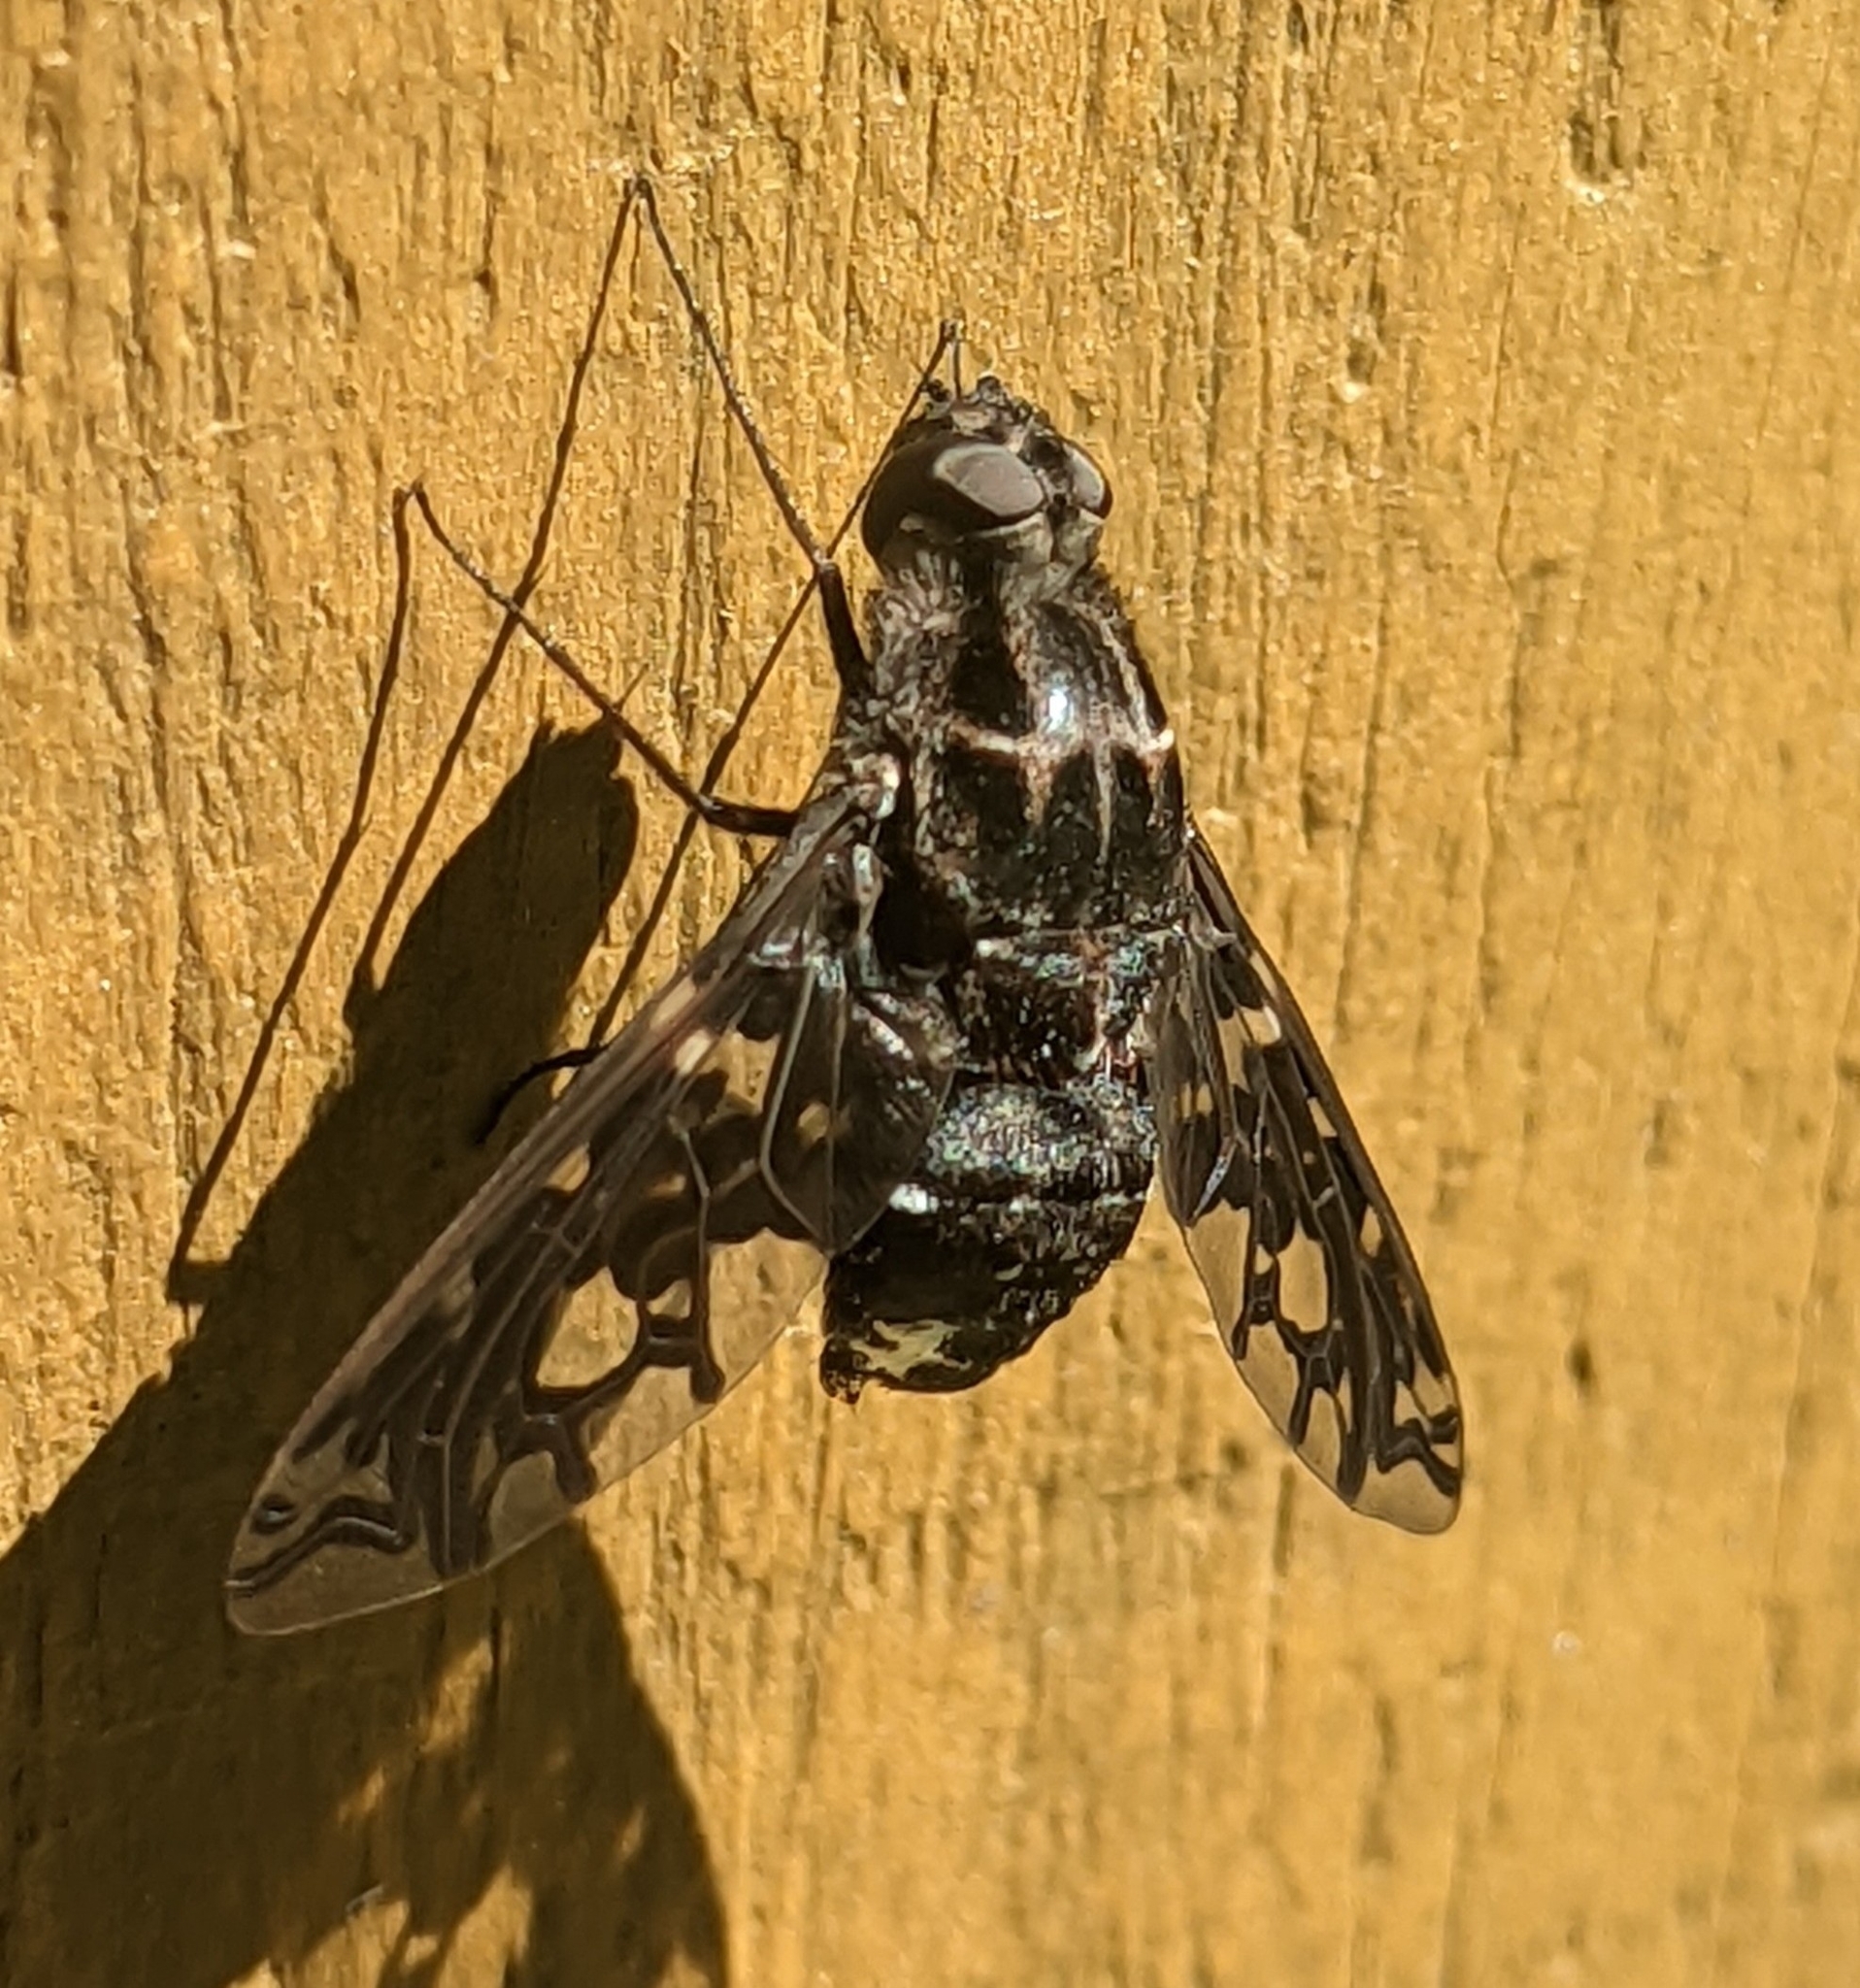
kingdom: Animalia
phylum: Arthropoda
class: Insecta
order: Diptera
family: Bombyliidae
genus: Xenox
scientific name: Xenox tigrinus
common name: Tiger bee fly
